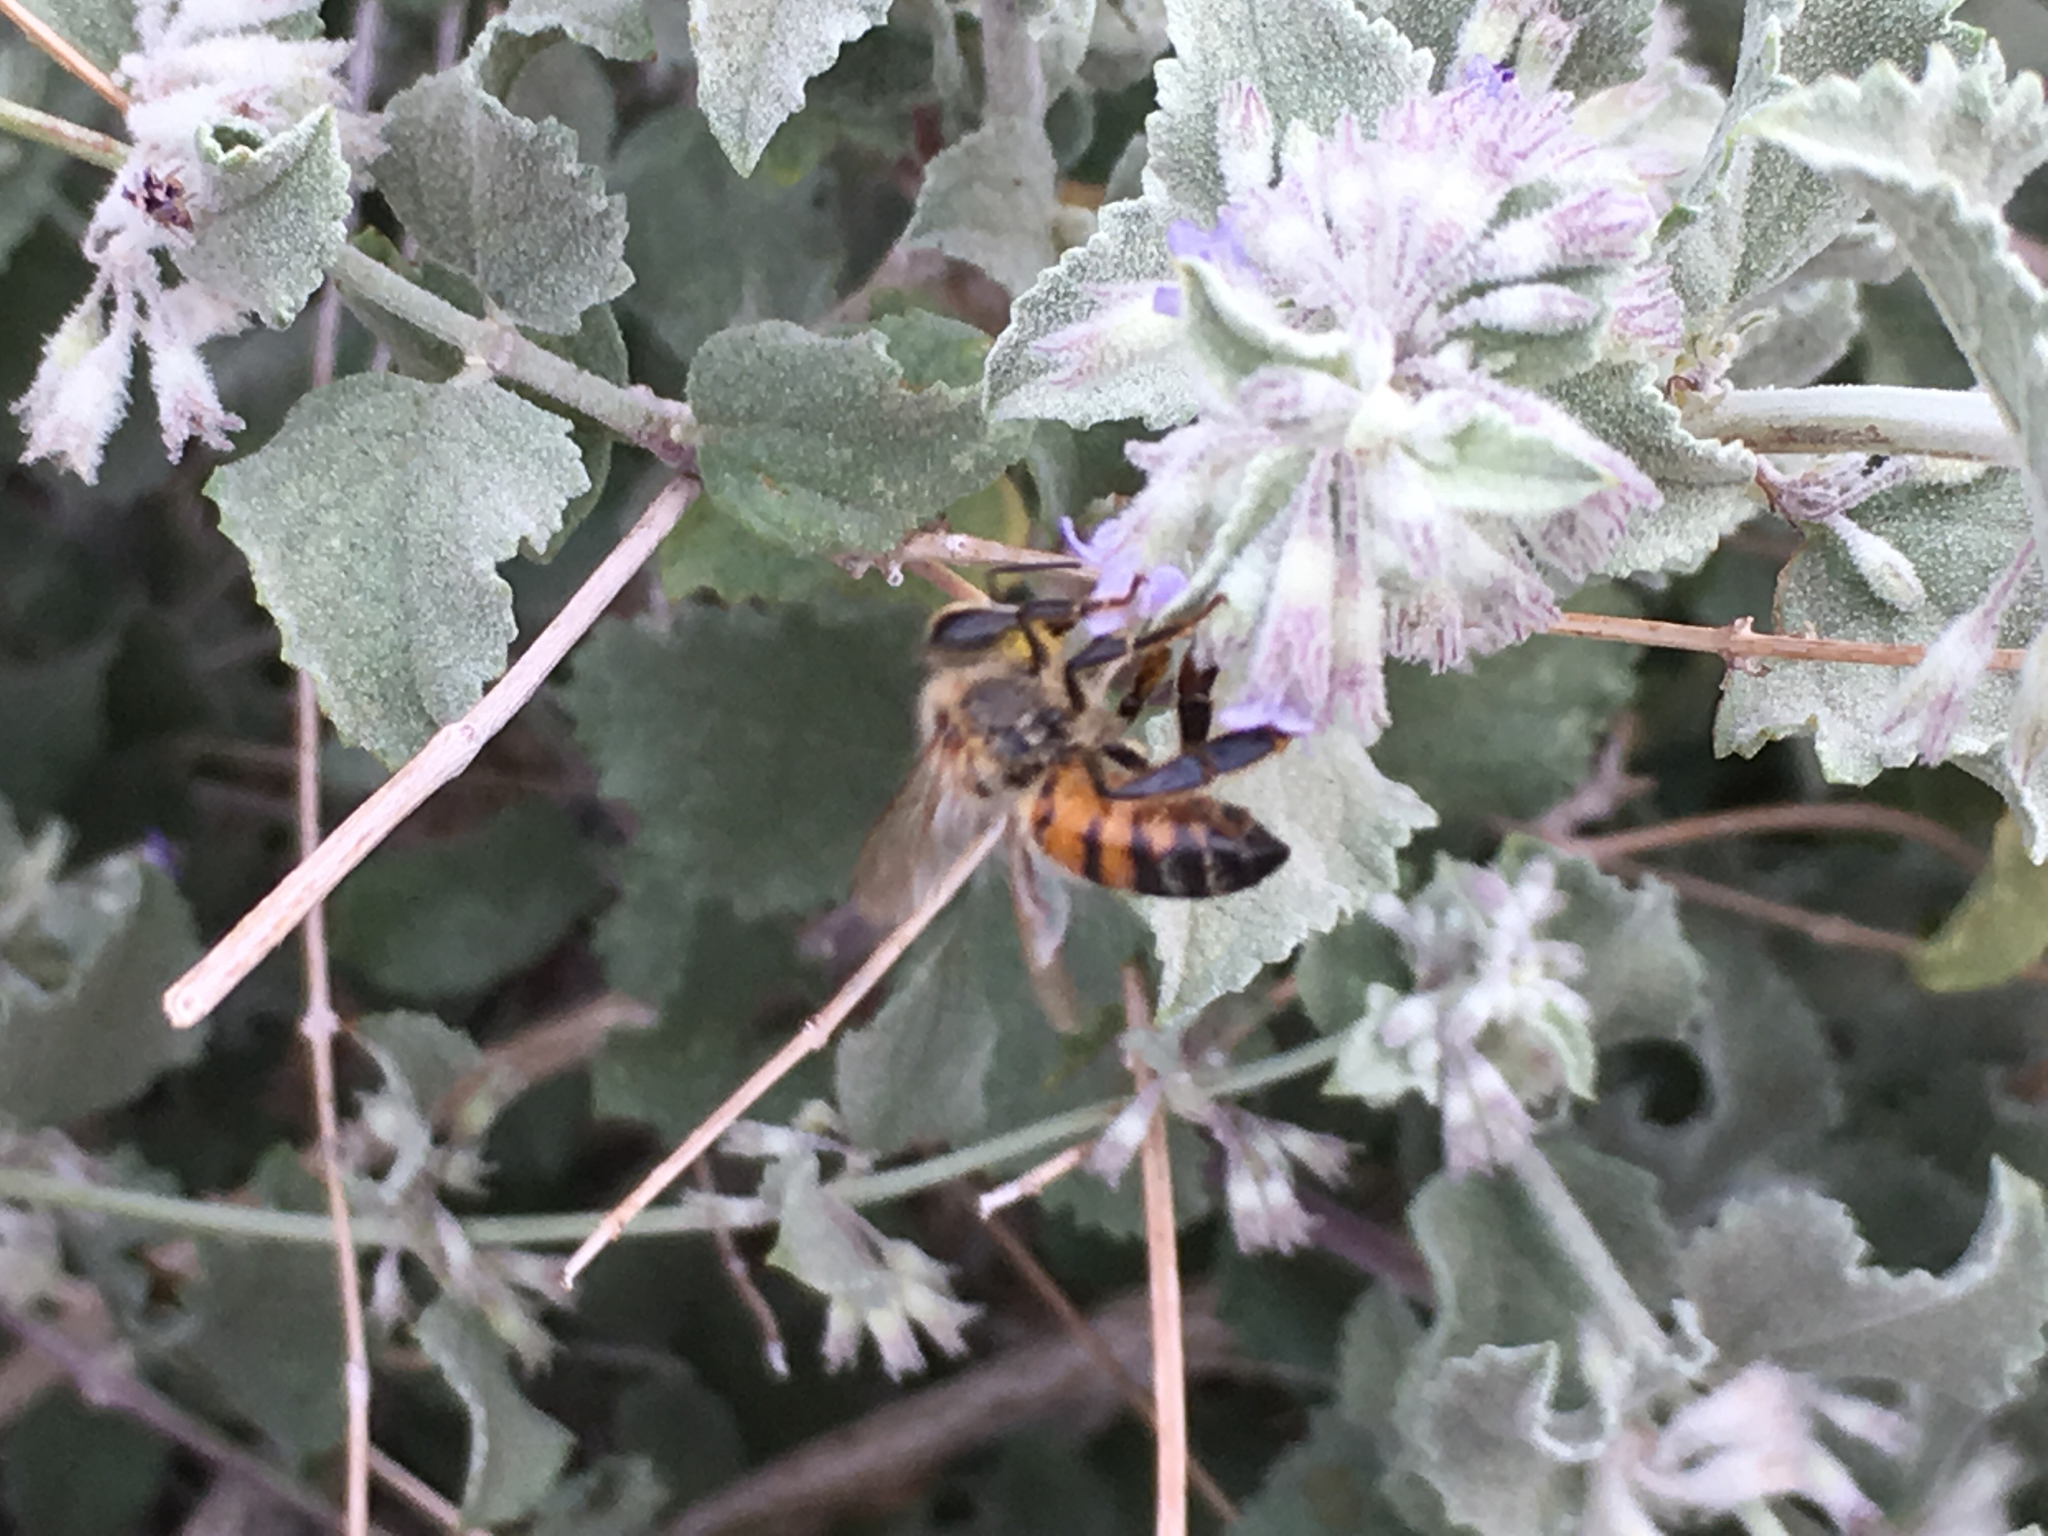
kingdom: Animalia
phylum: Arthropoda
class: Insecta
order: Hymenoptera
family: Apidae
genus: Apis
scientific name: Apis mellifera
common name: Honey bee
